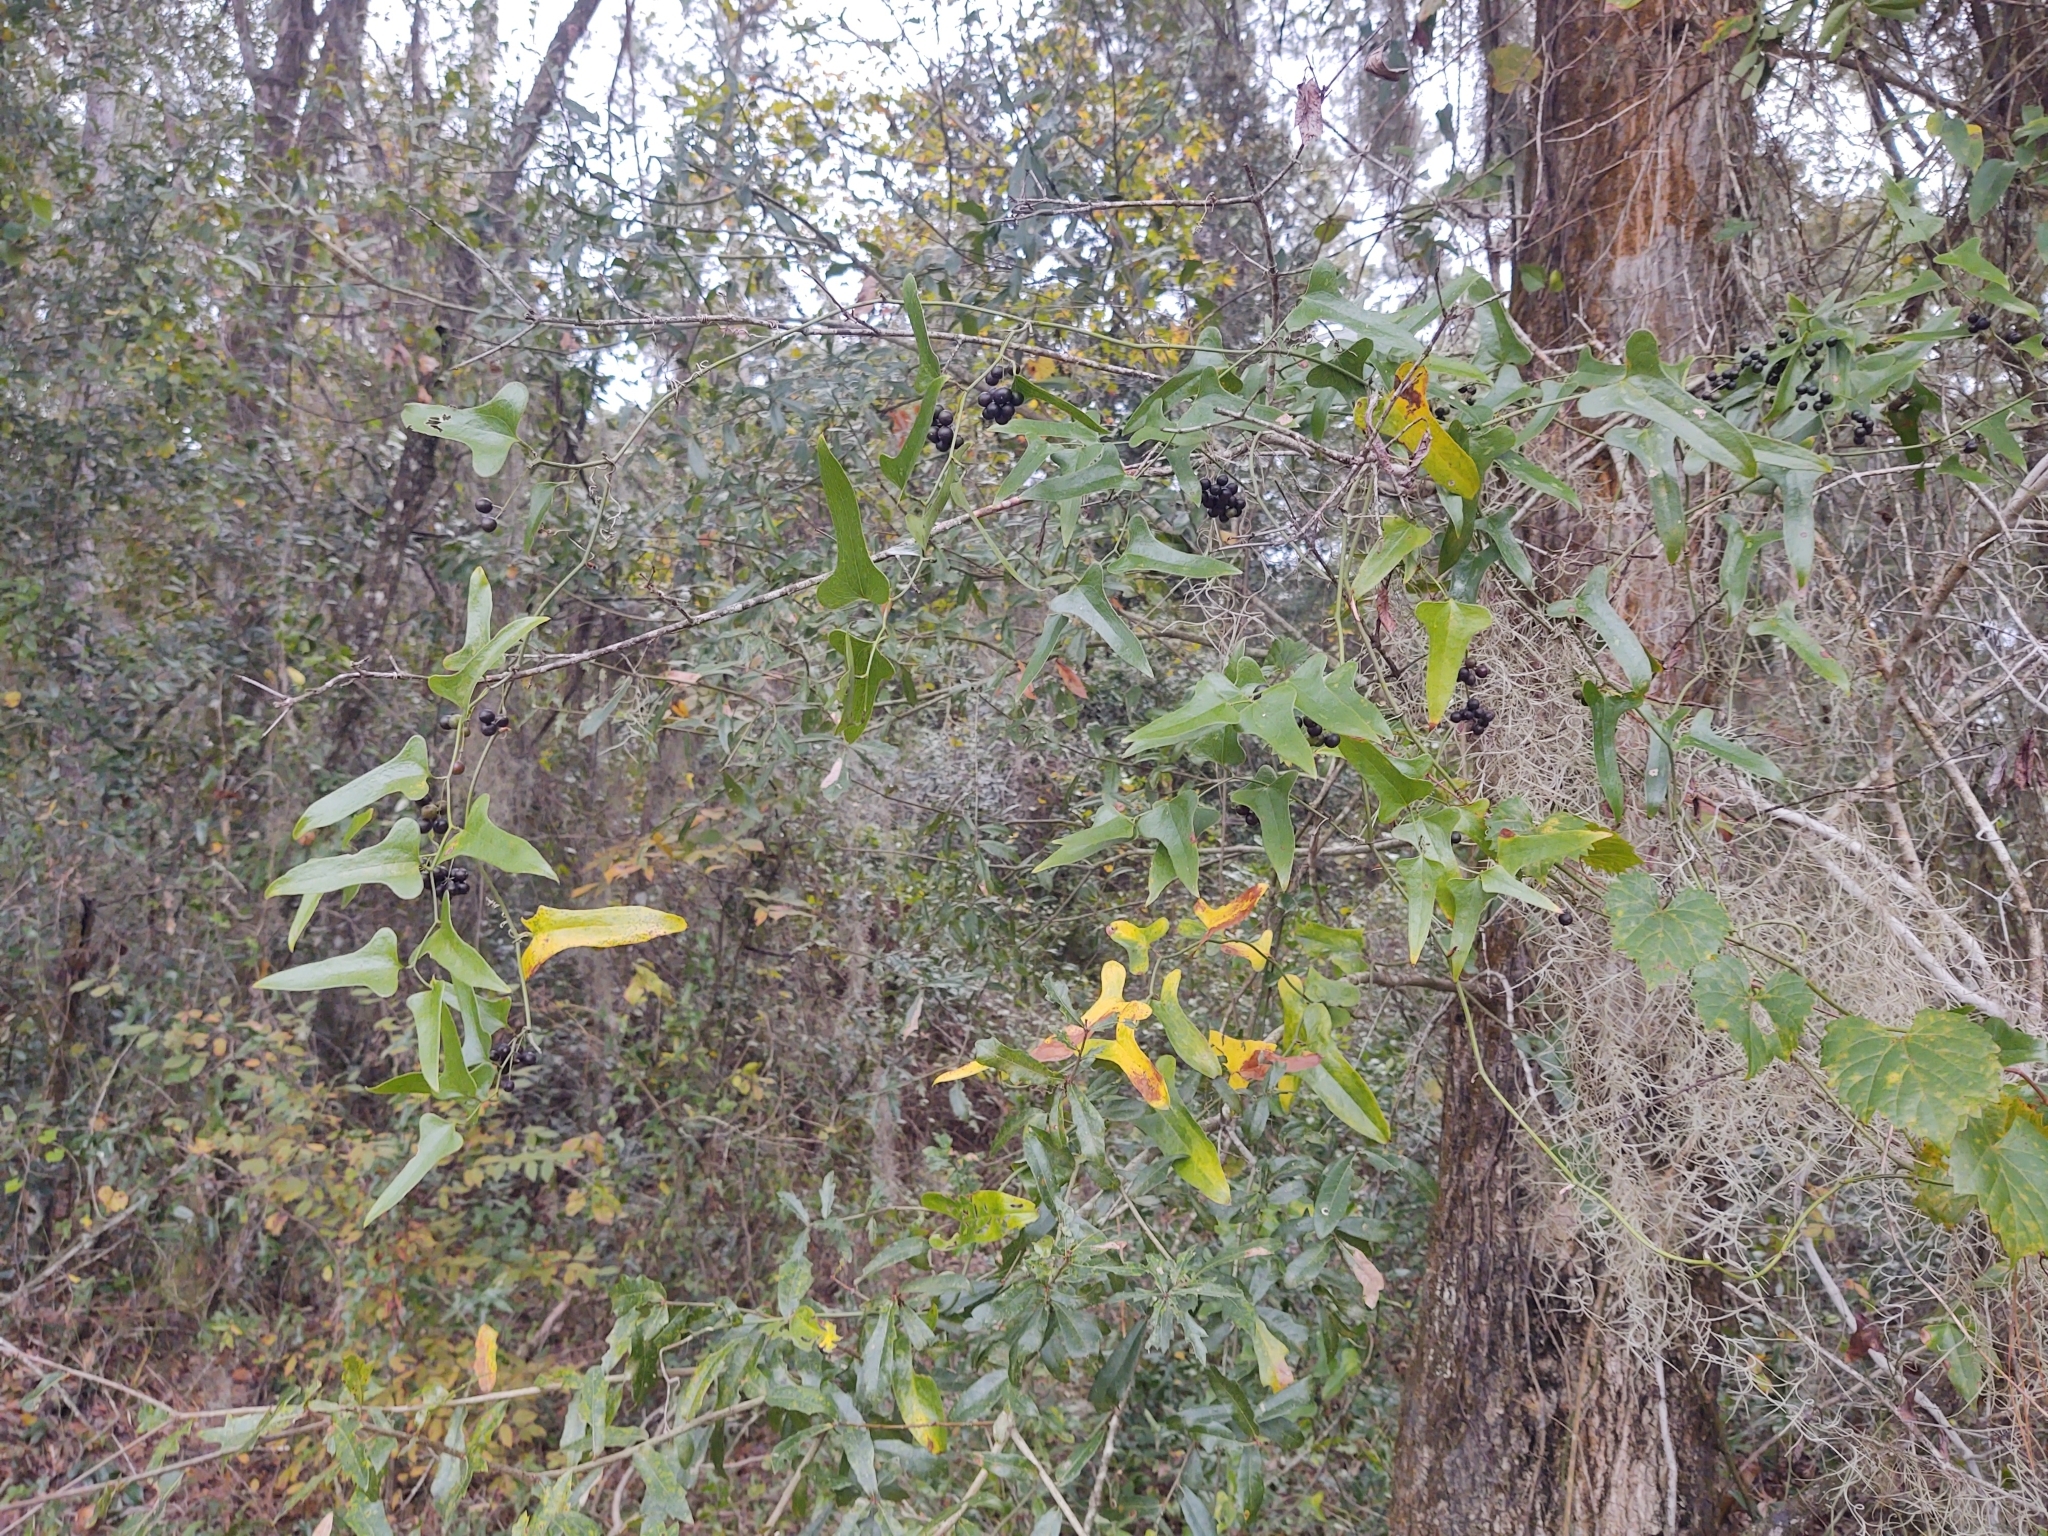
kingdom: Plantae
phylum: Tracheophyta
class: Liliopsida
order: Liliales
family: Smilacaceae
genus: Smilax
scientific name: Smilax bona-nox
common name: Catbrier
